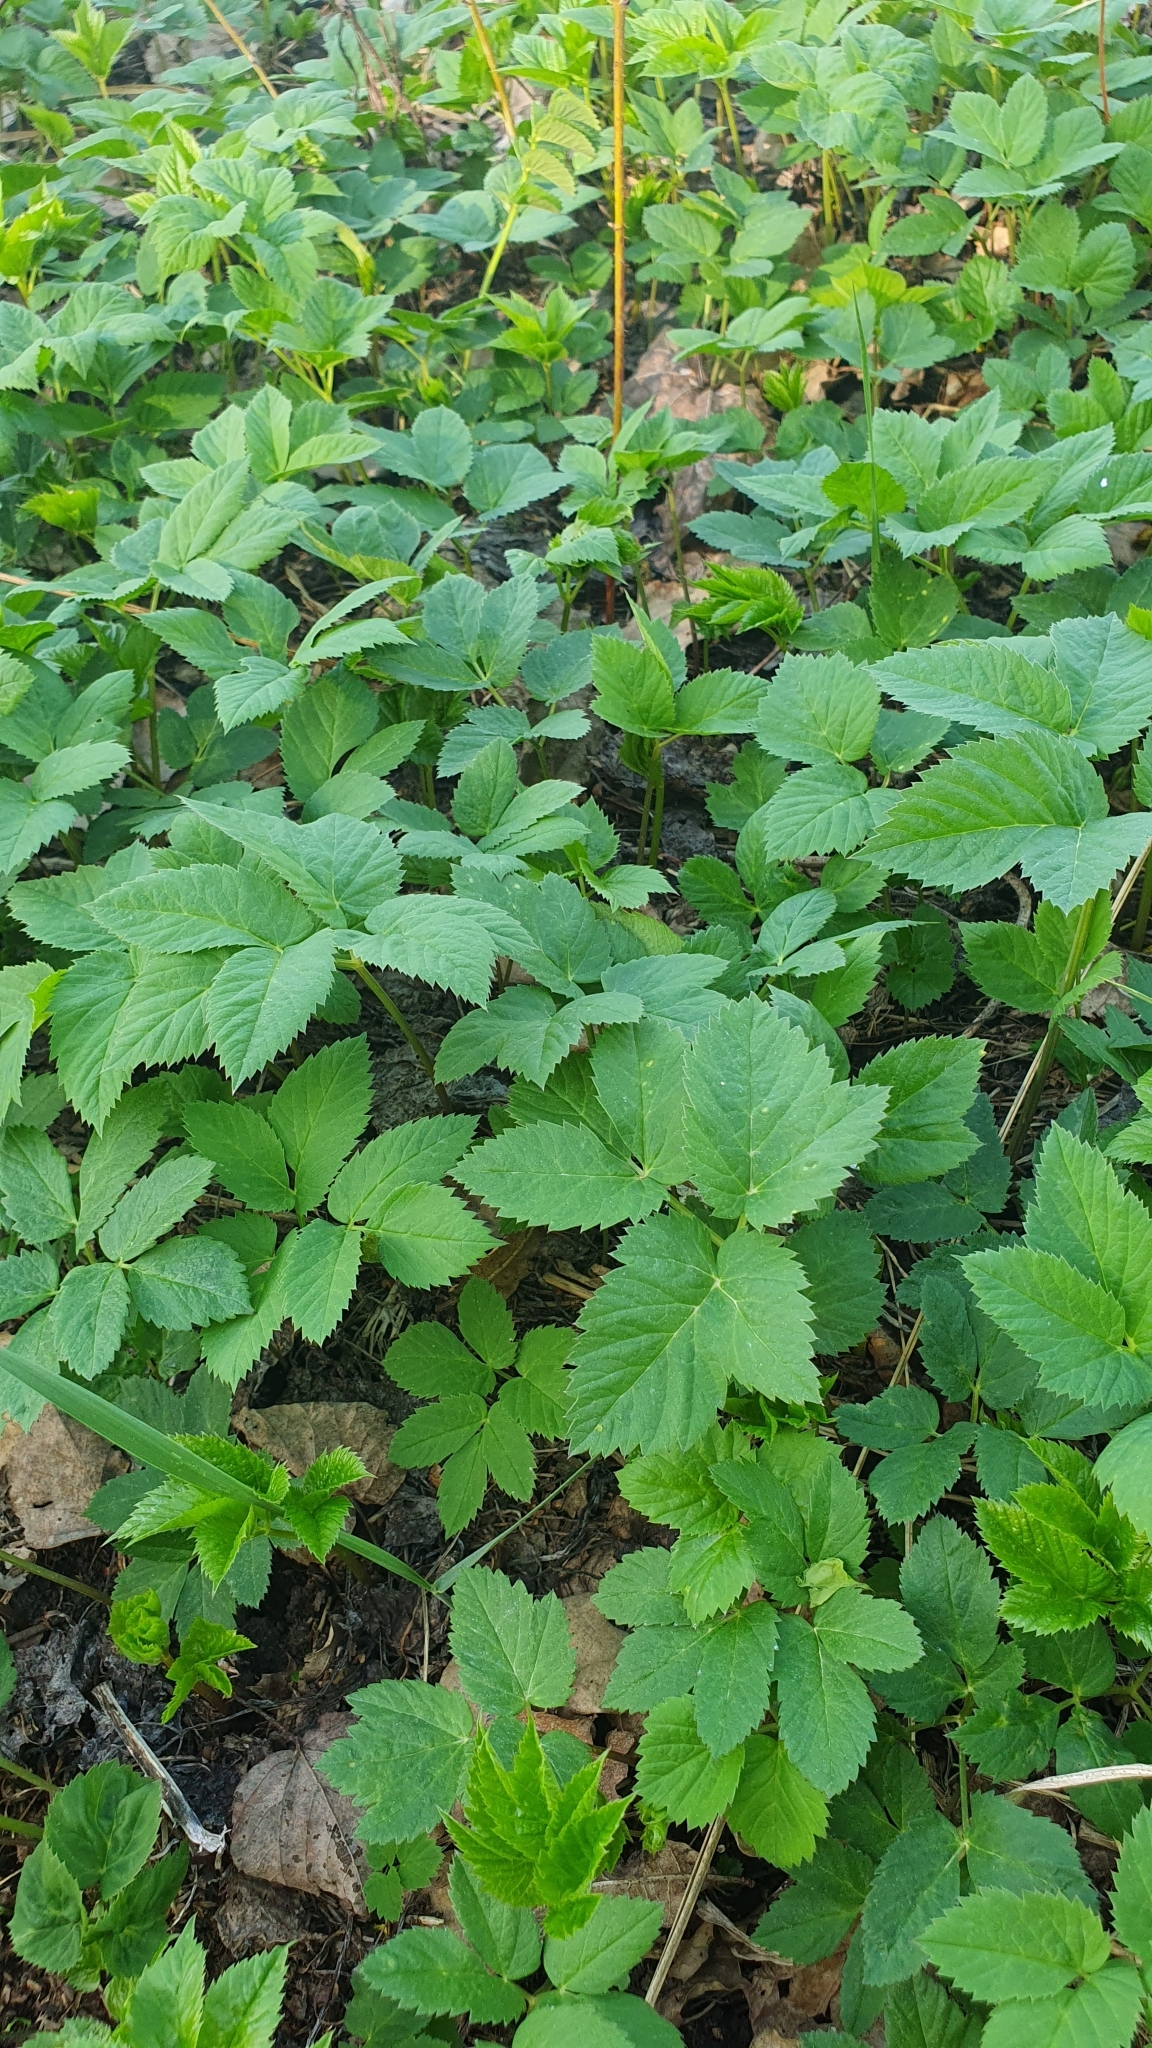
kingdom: Plantae
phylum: Tracheophyta
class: Magnoliopsida
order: Apiales
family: Apiaceae
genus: Aegopodium
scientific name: Aegopodium podagraria
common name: Ground-elder
